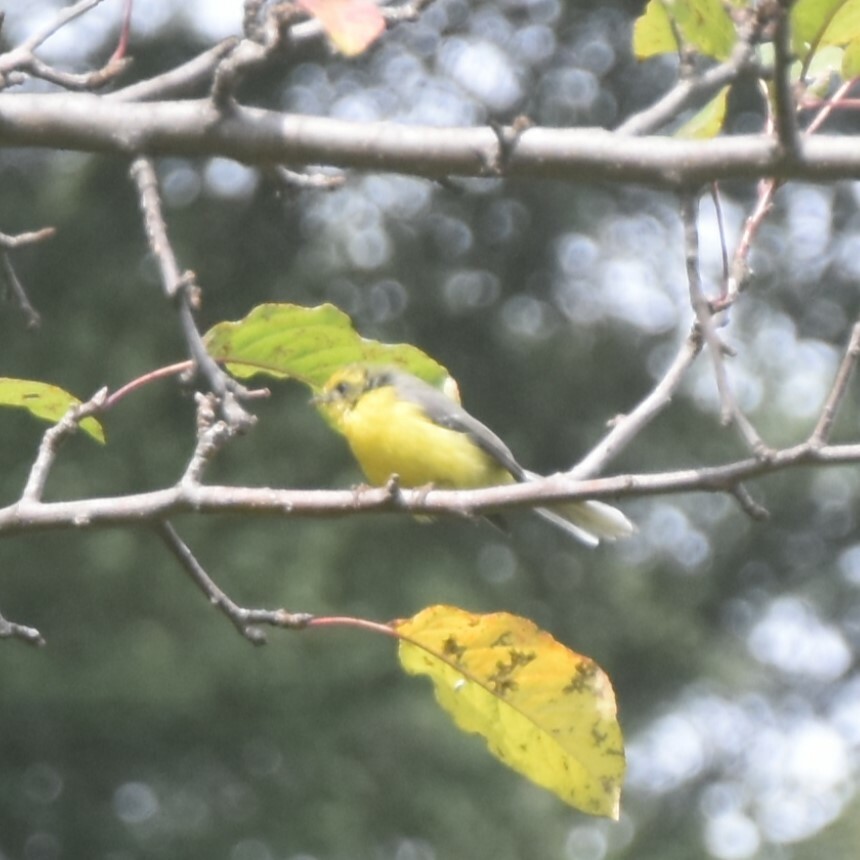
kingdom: Animalia
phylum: Chordata
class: Aves
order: Passeriformes
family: Stenostiridae
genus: Chelidorhynx
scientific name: Chelidorhynx hypoxantha
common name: Yellow-bellied fantail
